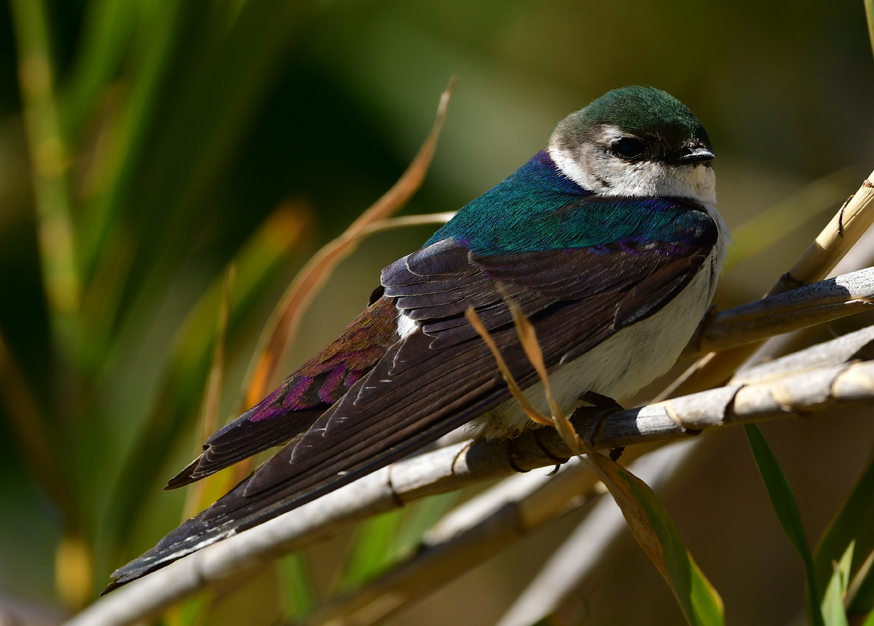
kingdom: Animalia
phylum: Chordata
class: Aves
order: Passeriformes
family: Hirundinidae
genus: Tachycineta
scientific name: Tachycineta thalassina
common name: Violet-green swallow
